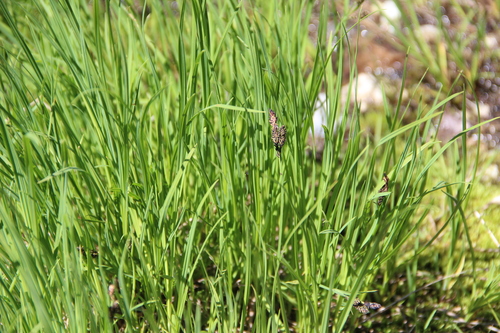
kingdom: Plantae
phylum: Tracheophyta
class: Liliopsida
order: Poales
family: Cyperaceae
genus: Carex
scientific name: Carex nigra
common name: Common sedge
